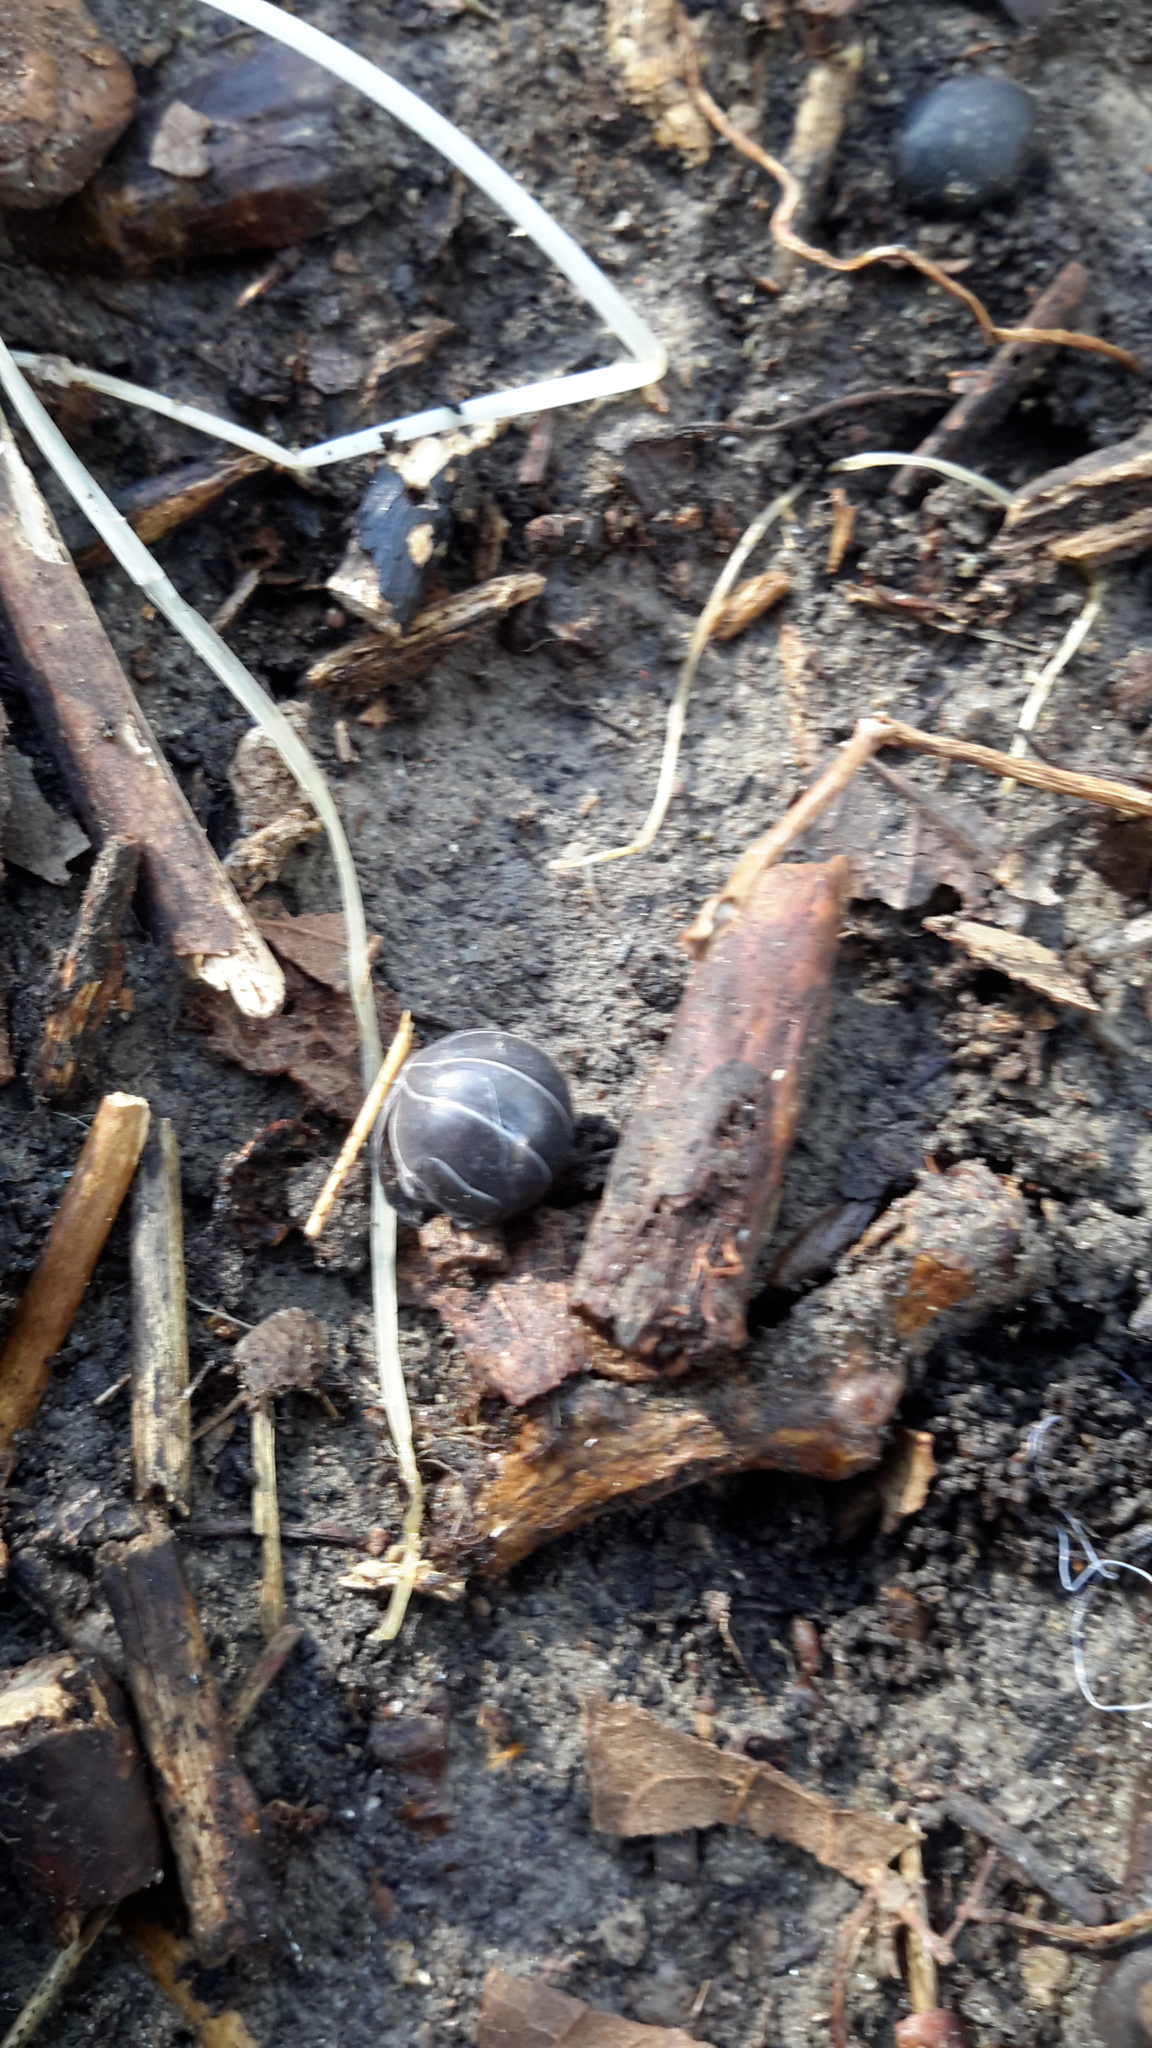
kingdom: Animalia
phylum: Arthropoda
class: Malacostraca
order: Isopoda
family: Armadillidiidae
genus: Armadillidium
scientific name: Armadillidium vulgare
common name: Common pill woodlouse
